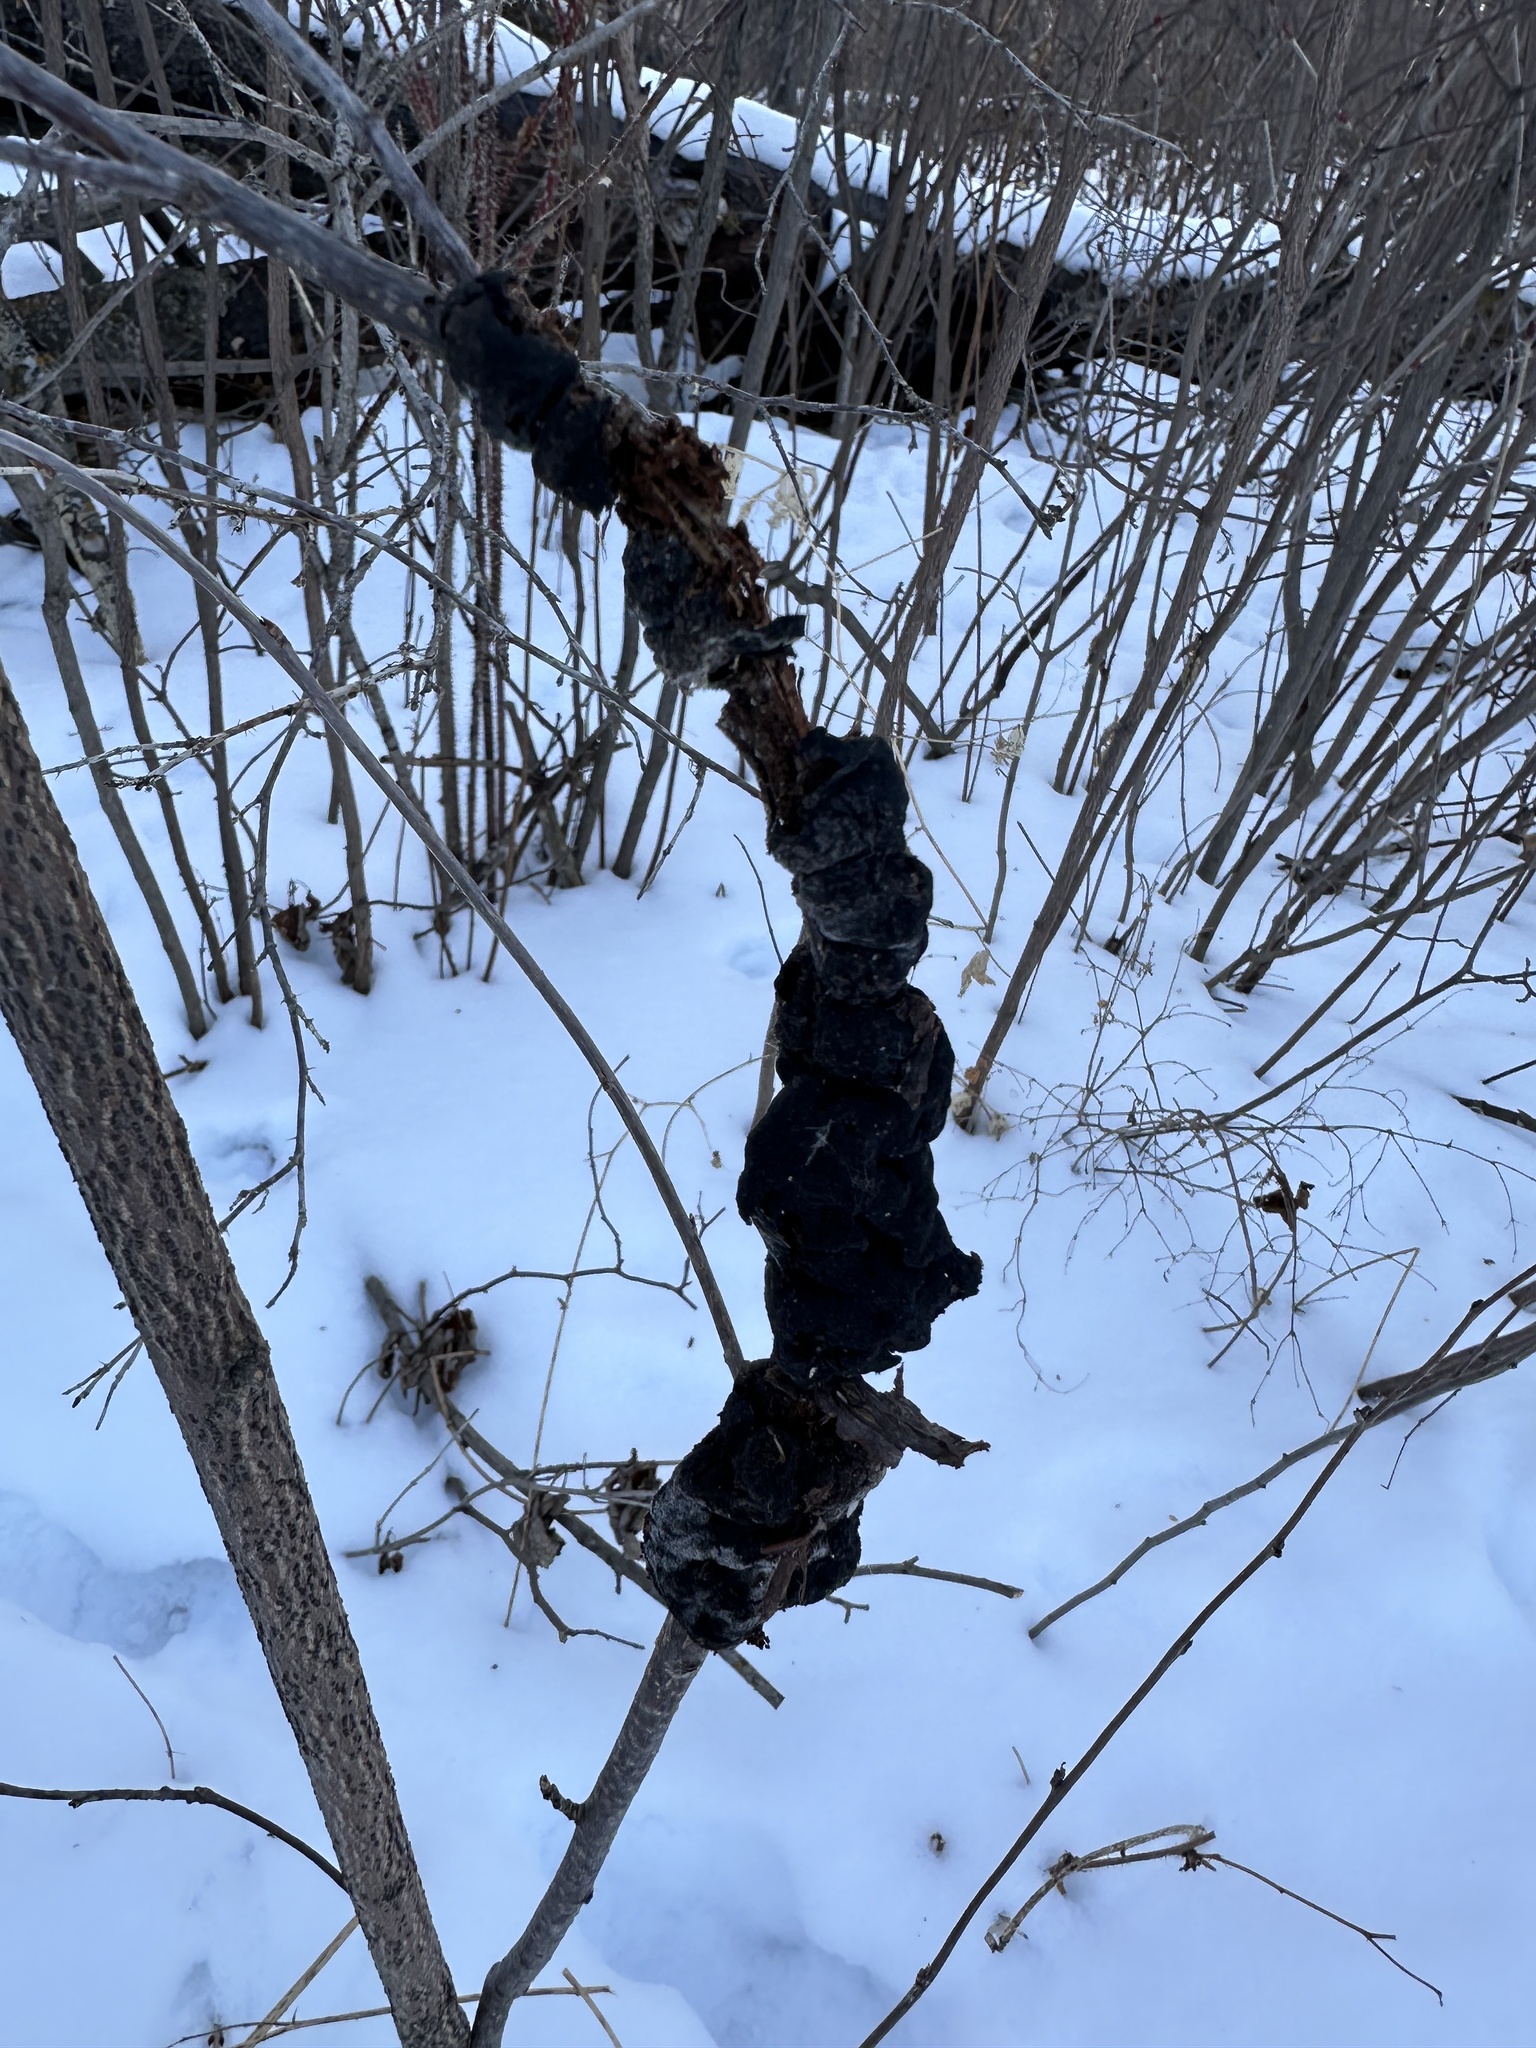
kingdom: Fungi
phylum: Ascomycota
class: Dothideomycetes
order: Venturiales
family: Venturiaceae
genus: Apiosporina
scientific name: Apiosporina morbosa
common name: Black knot
